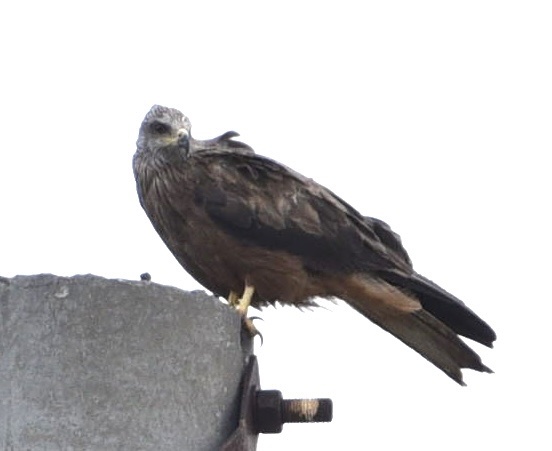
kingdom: Animalia
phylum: Chordata
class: Aves
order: Accipitriformes
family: Accipitridae
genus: Milvus
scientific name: Milvus migrans
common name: Black kite
